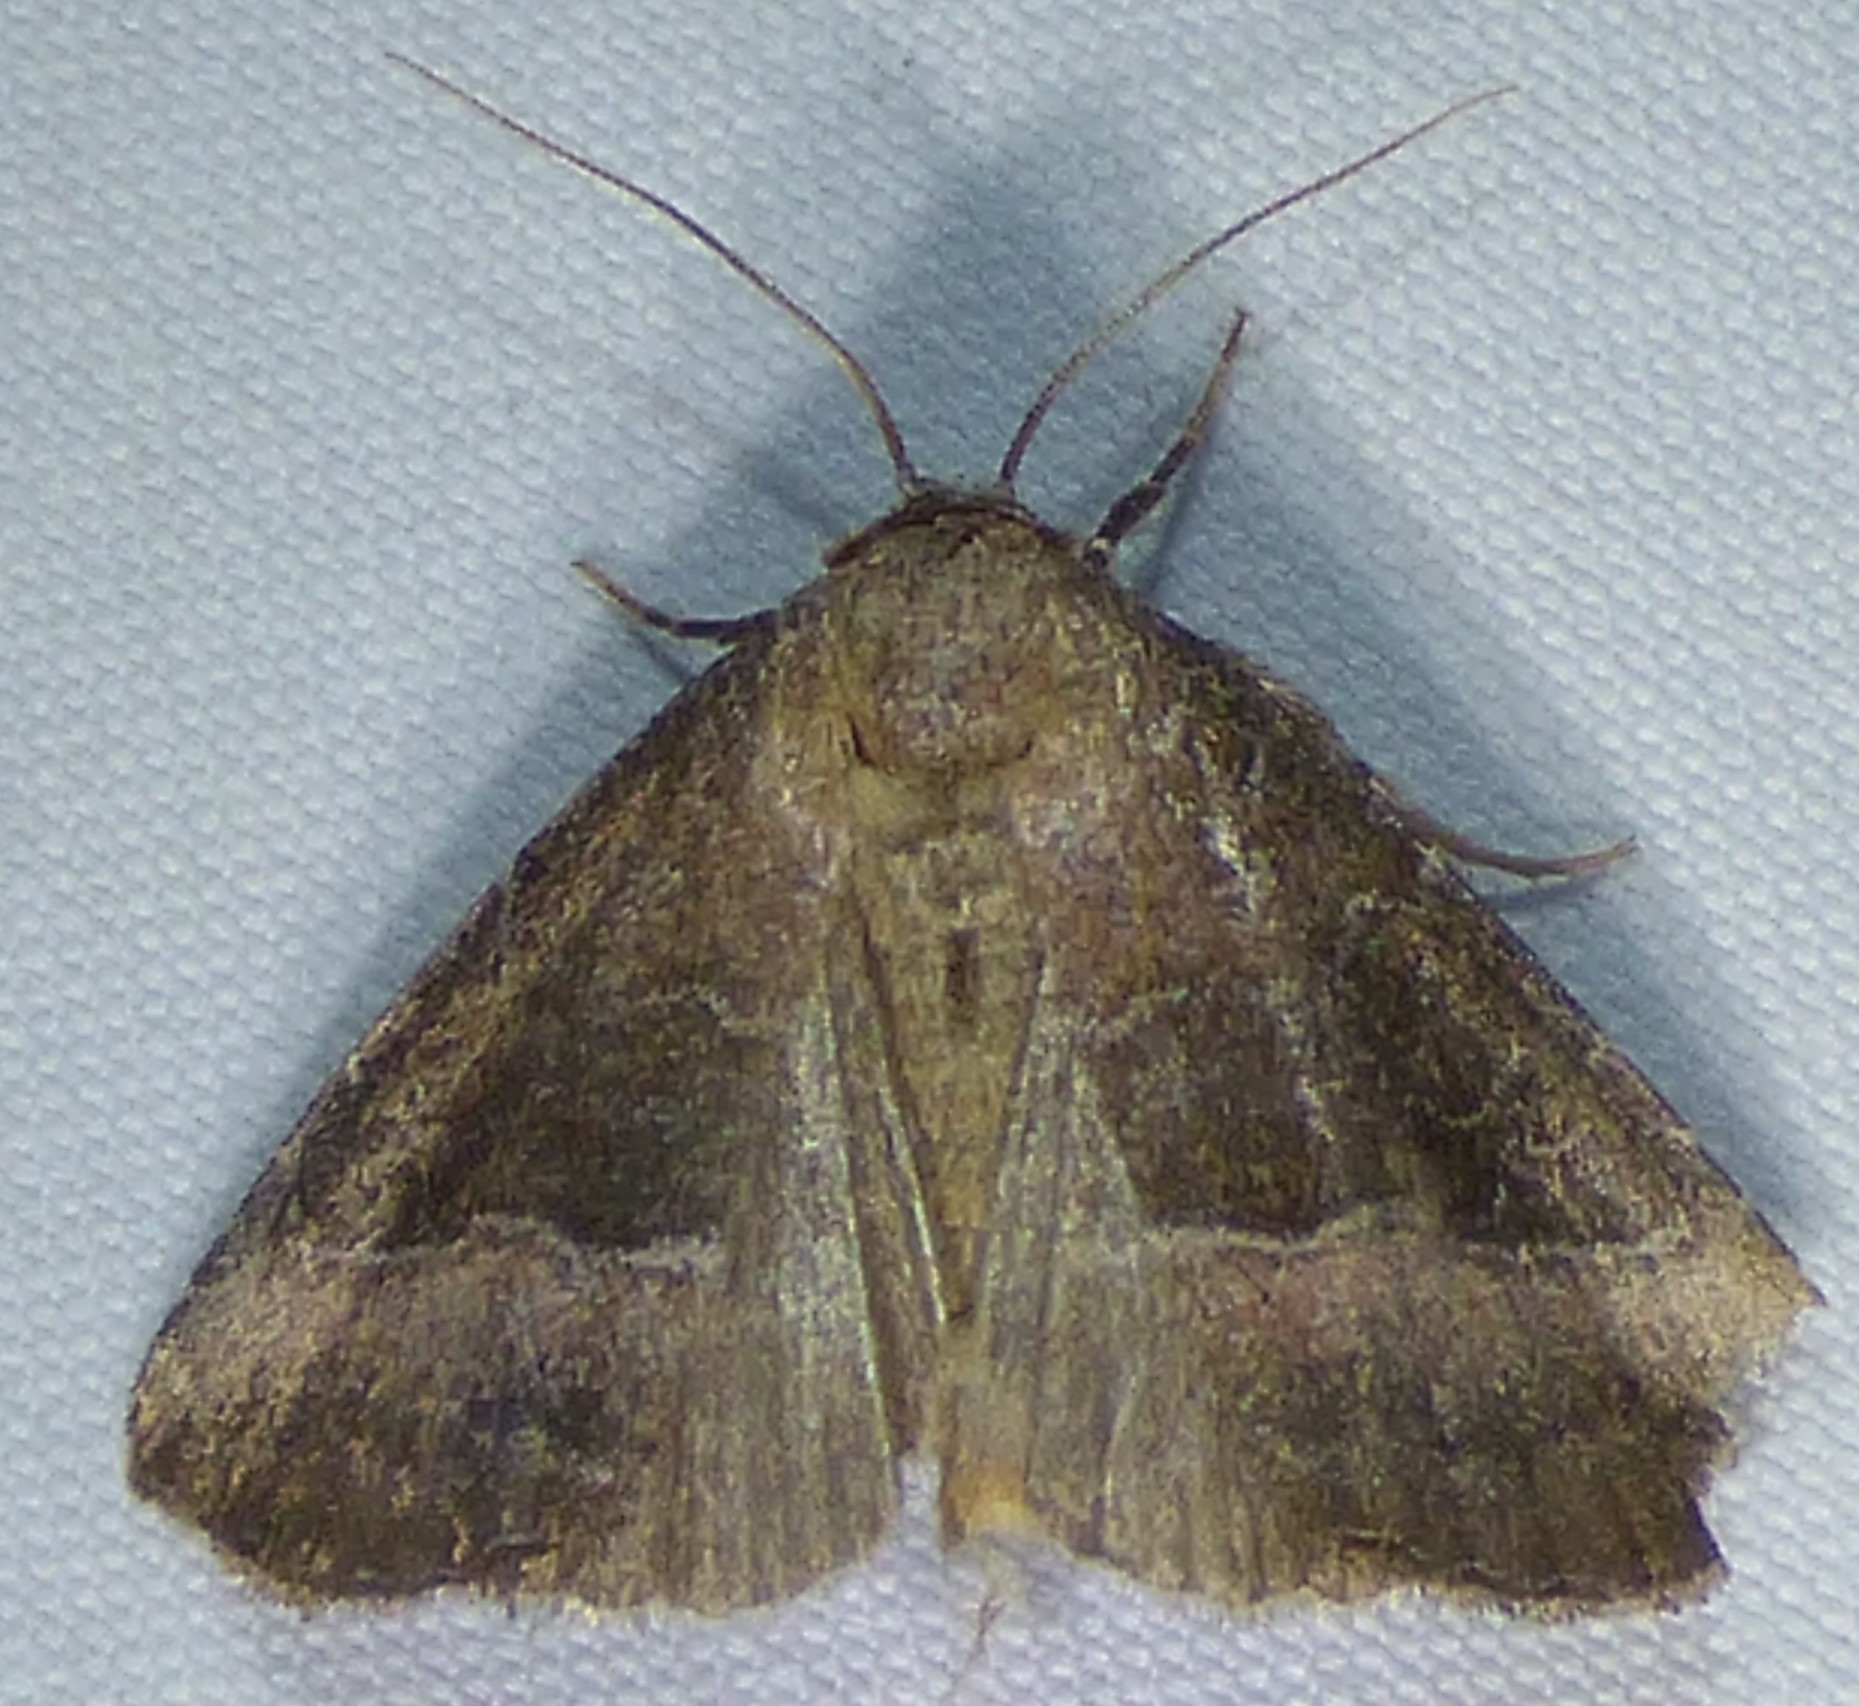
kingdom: Animalia
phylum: Arthropoda
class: Insecta
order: Lepidoptera
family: Noctuidae
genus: Ogdoconta
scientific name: Ogdoconta cinereola
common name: Common pinkband
